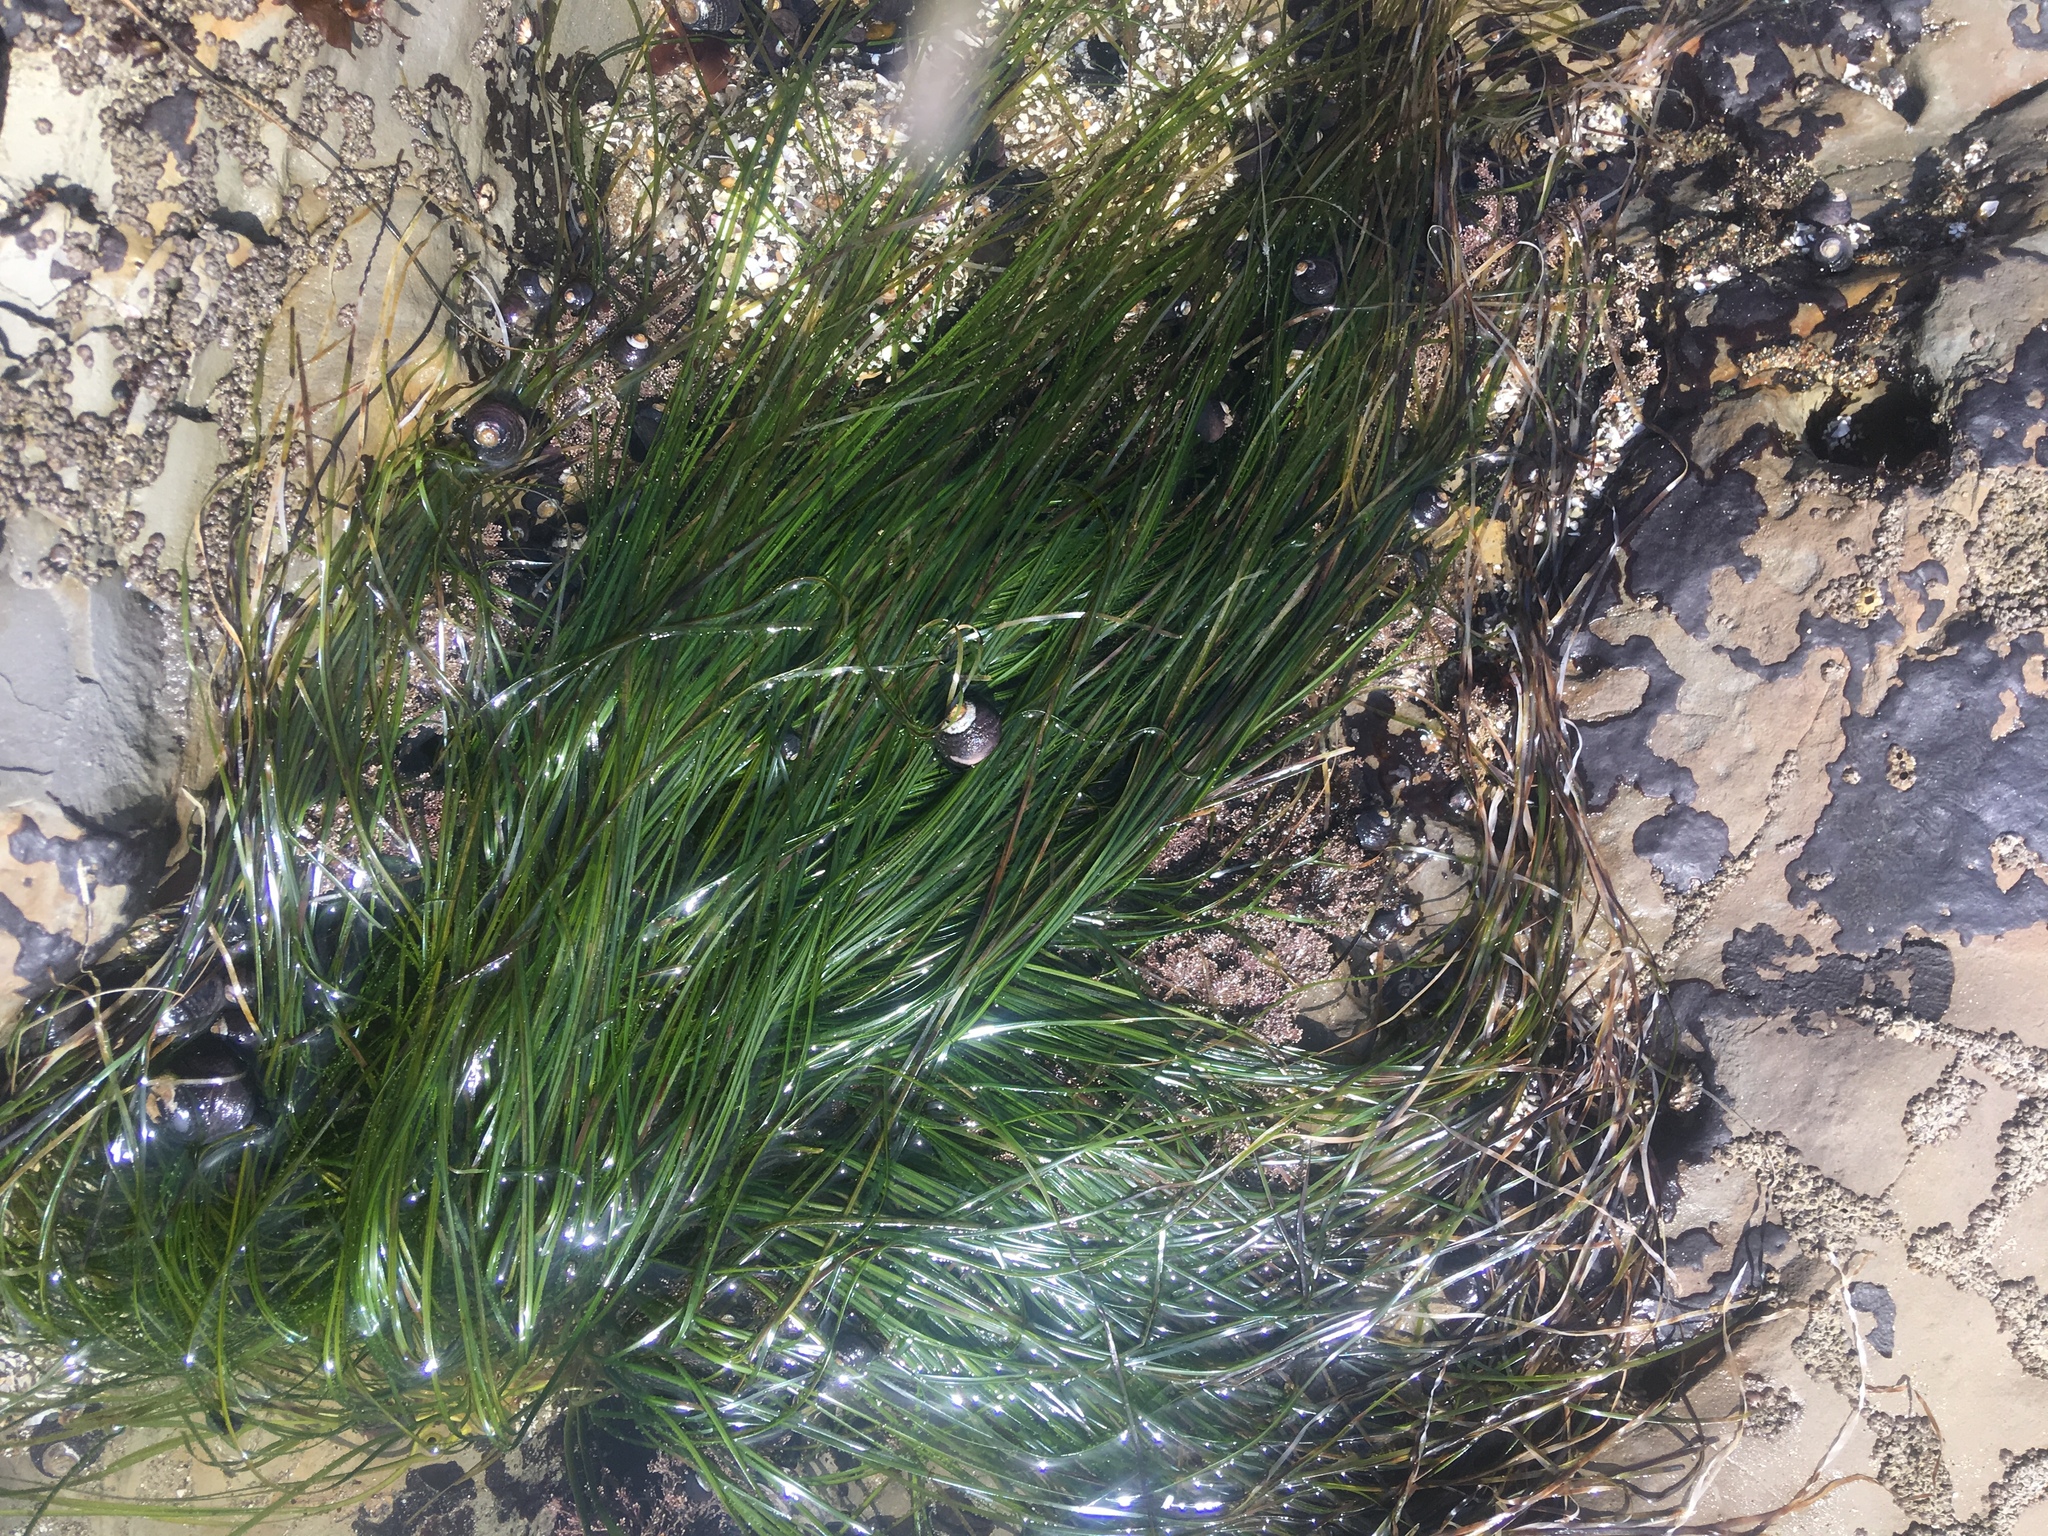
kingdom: Plantae
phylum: Tracheophyta
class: Liliopsida
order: Alismatales
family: Zosteraceae
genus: Phyllospadix
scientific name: Phyllospadix torreyi
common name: Surfgrass
